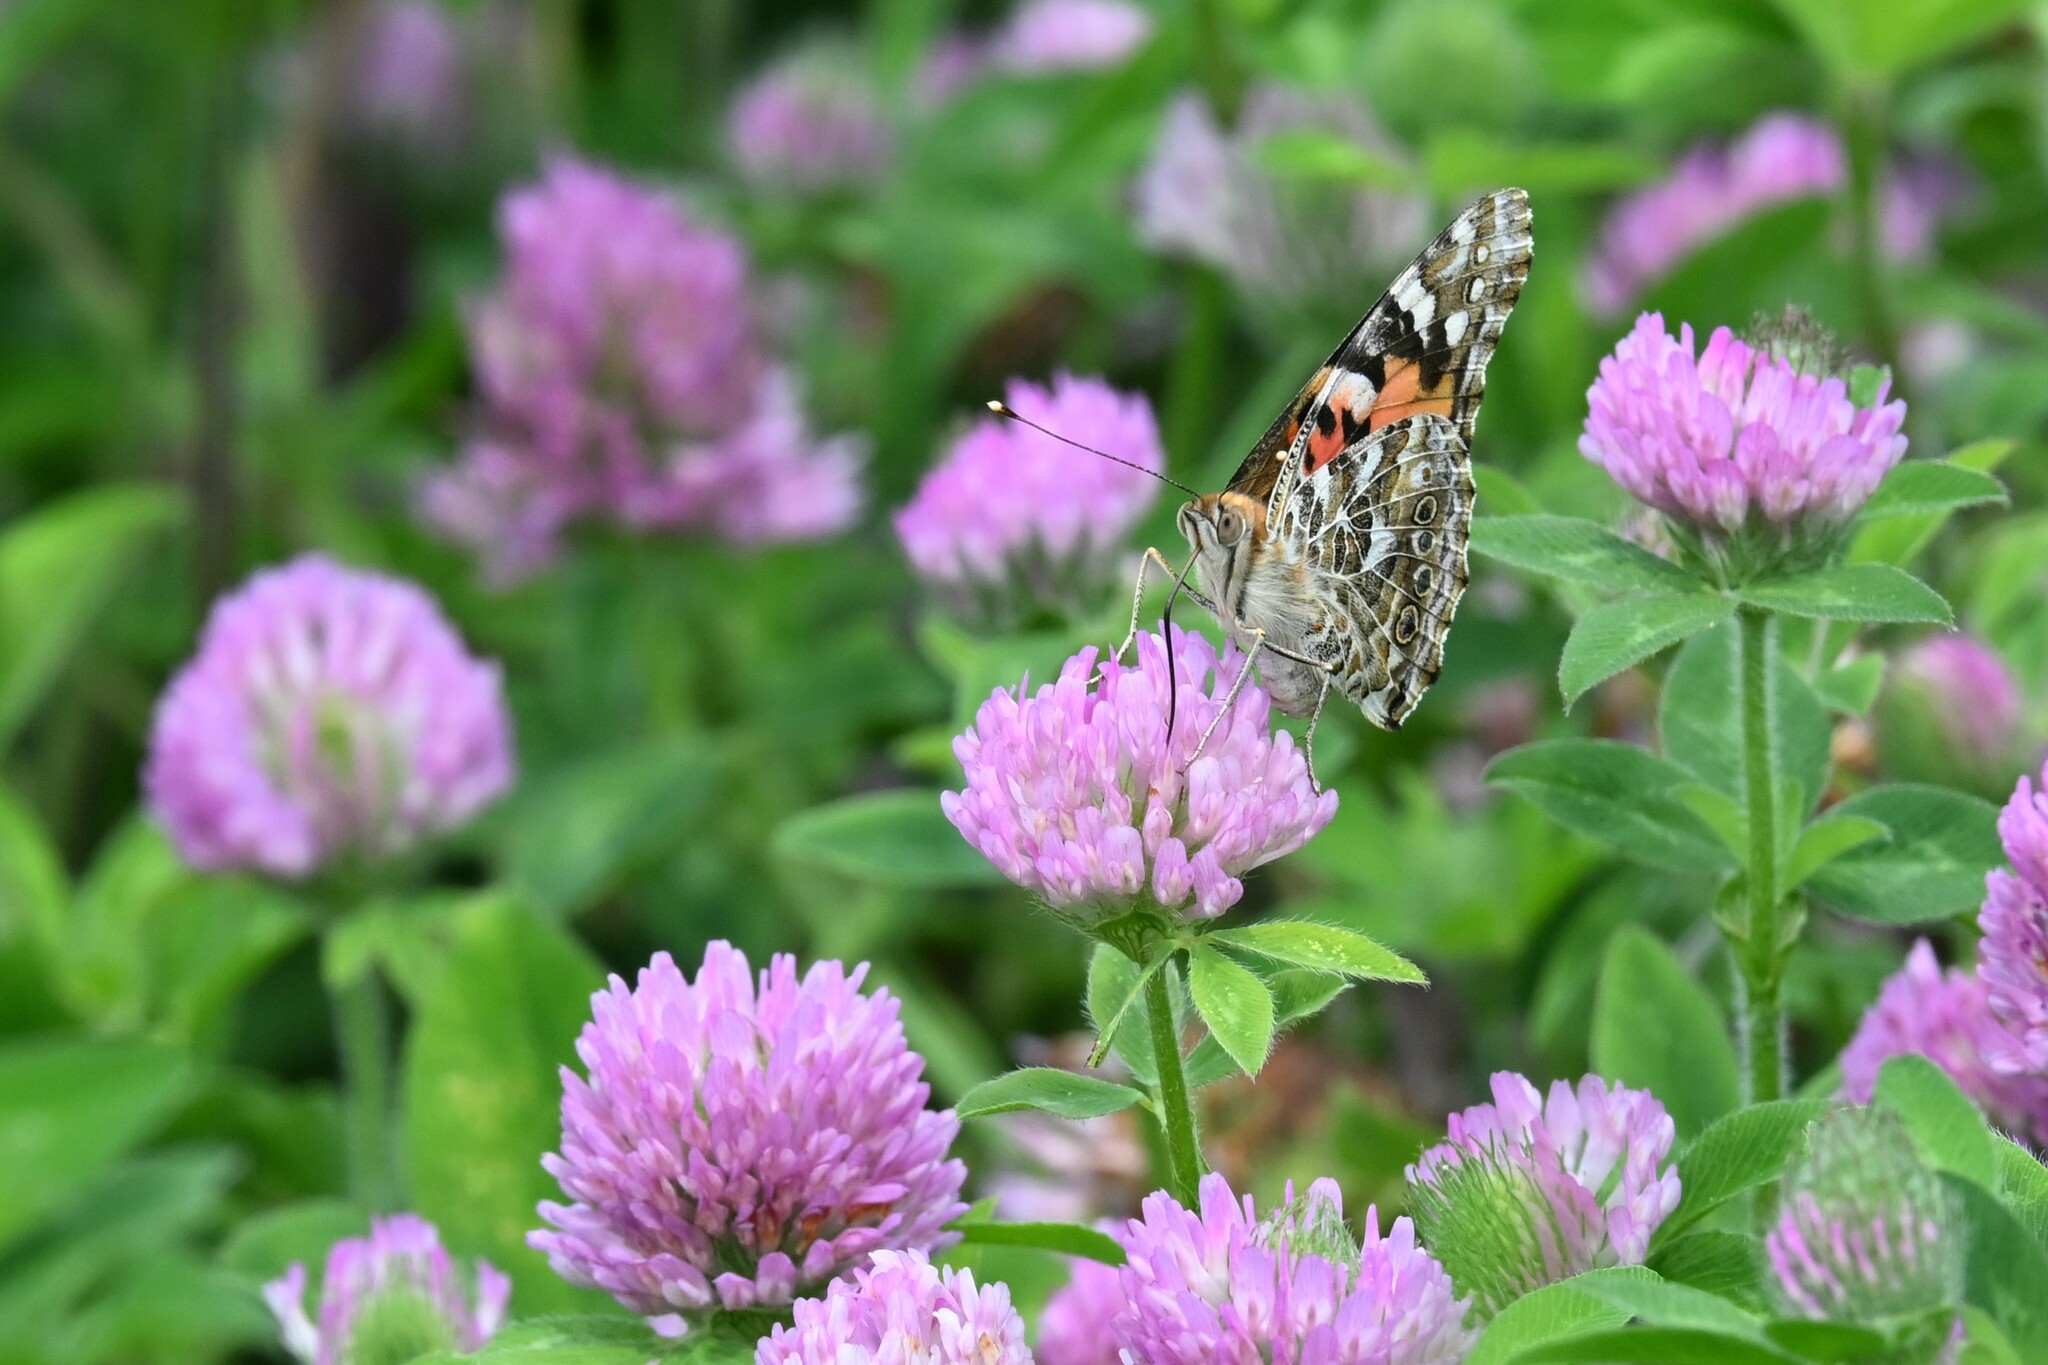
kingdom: Animalia
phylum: Arthropoda
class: Insecta
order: Lepidoptera
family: Nymphalidae
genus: Vanessa
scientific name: Vanessa cardui
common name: Painted lady
